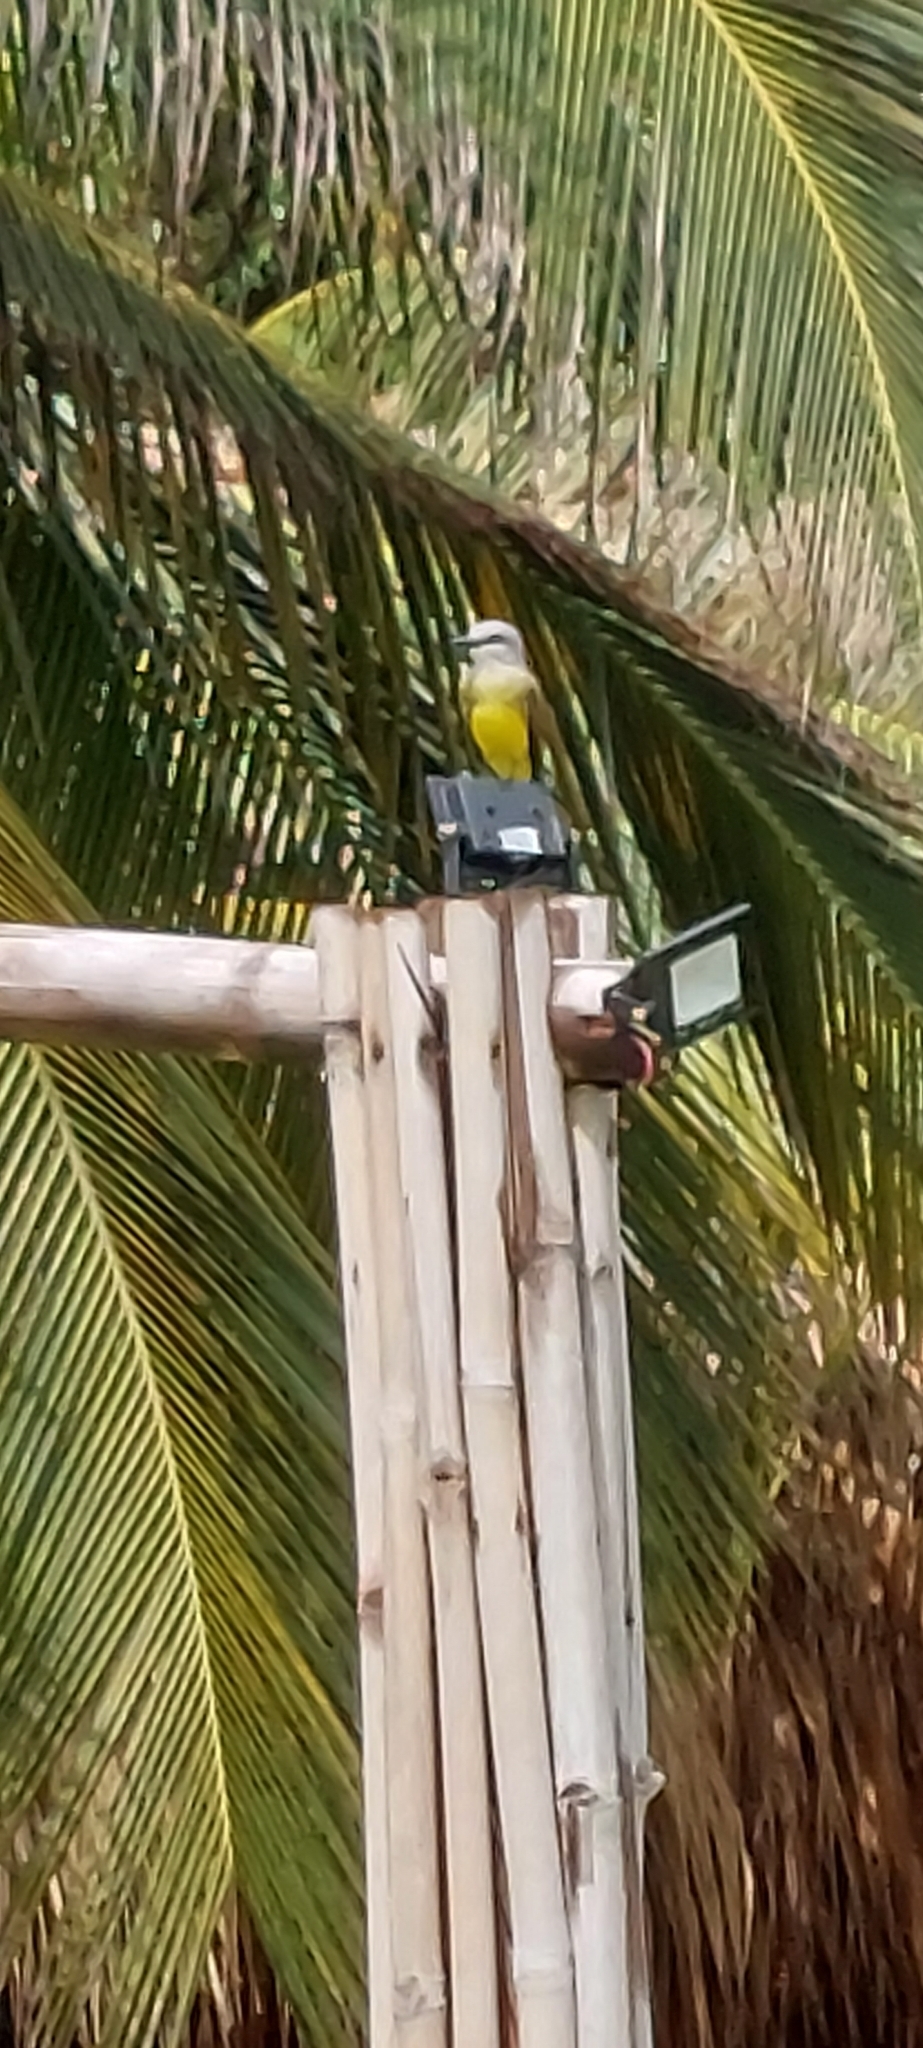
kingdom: Animalia
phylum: Chordata
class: Aves
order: Passeriformes
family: Tyrannidae
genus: Tyrannus
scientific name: Tyrannus melancholicus
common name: Tropical kingbird
